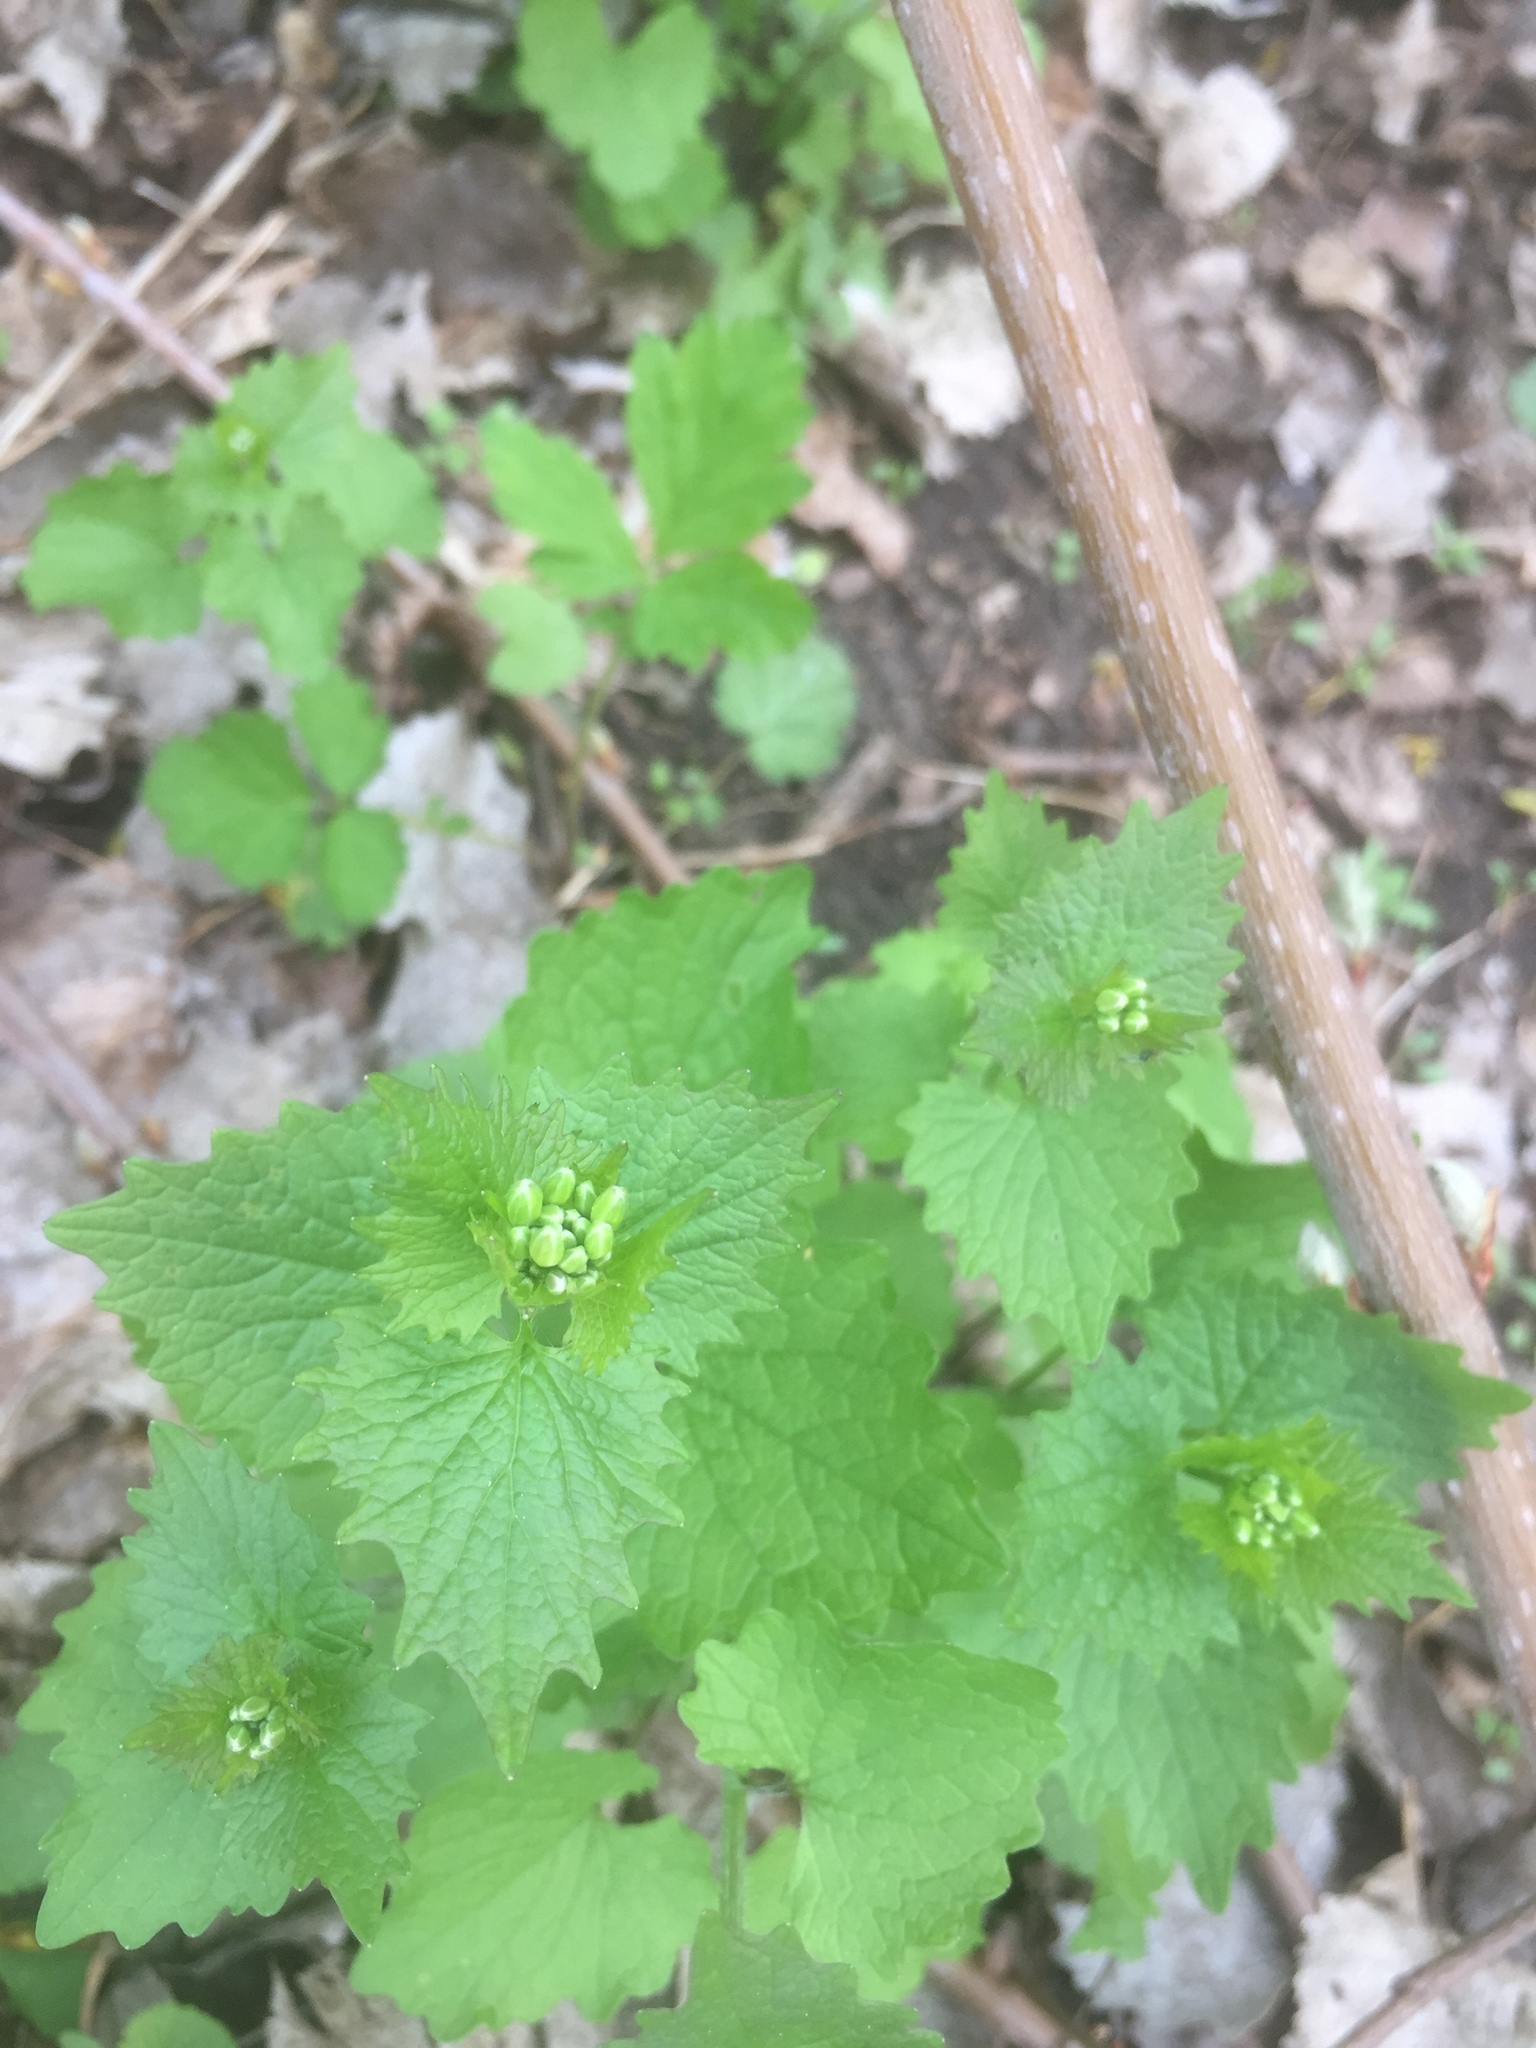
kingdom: Plantae
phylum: Tracheophyta
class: Magnoliopsida
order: Brassicales
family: Brassicaceae
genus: Alliaria
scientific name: Alliaria petiolata
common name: Garlic mustard
